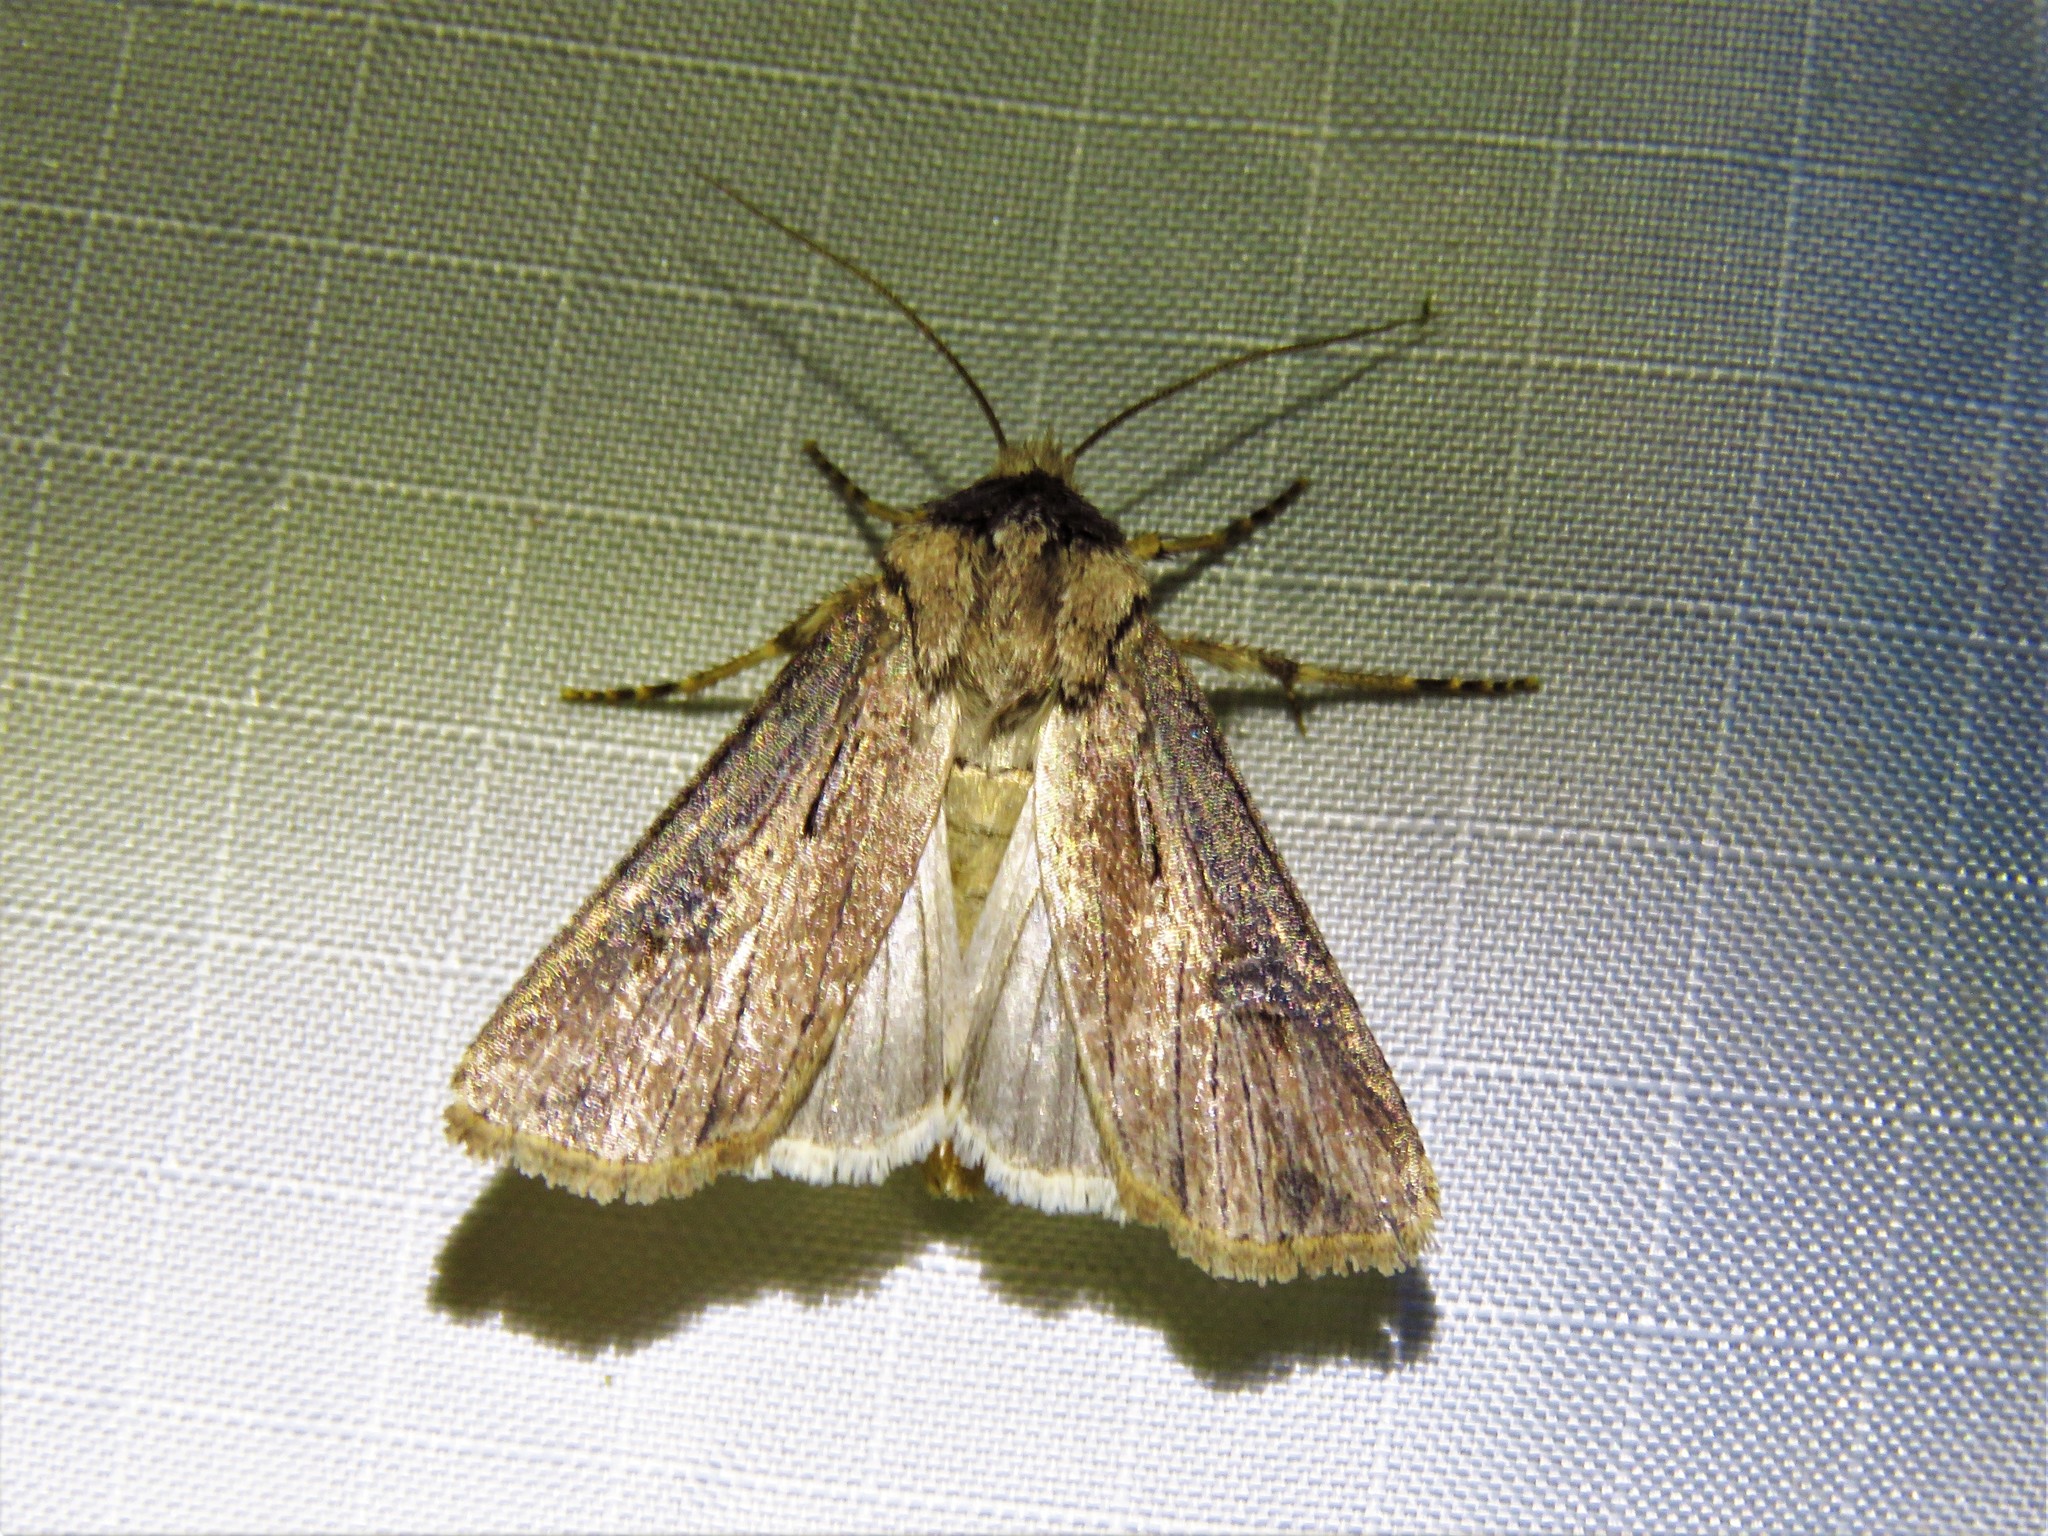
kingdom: Animalia
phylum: Arthropoda
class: Insecta
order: Lepidoptera
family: Noctuidae
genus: Agrotis
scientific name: Agrotis ipsilon
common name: Dark sword-grass
